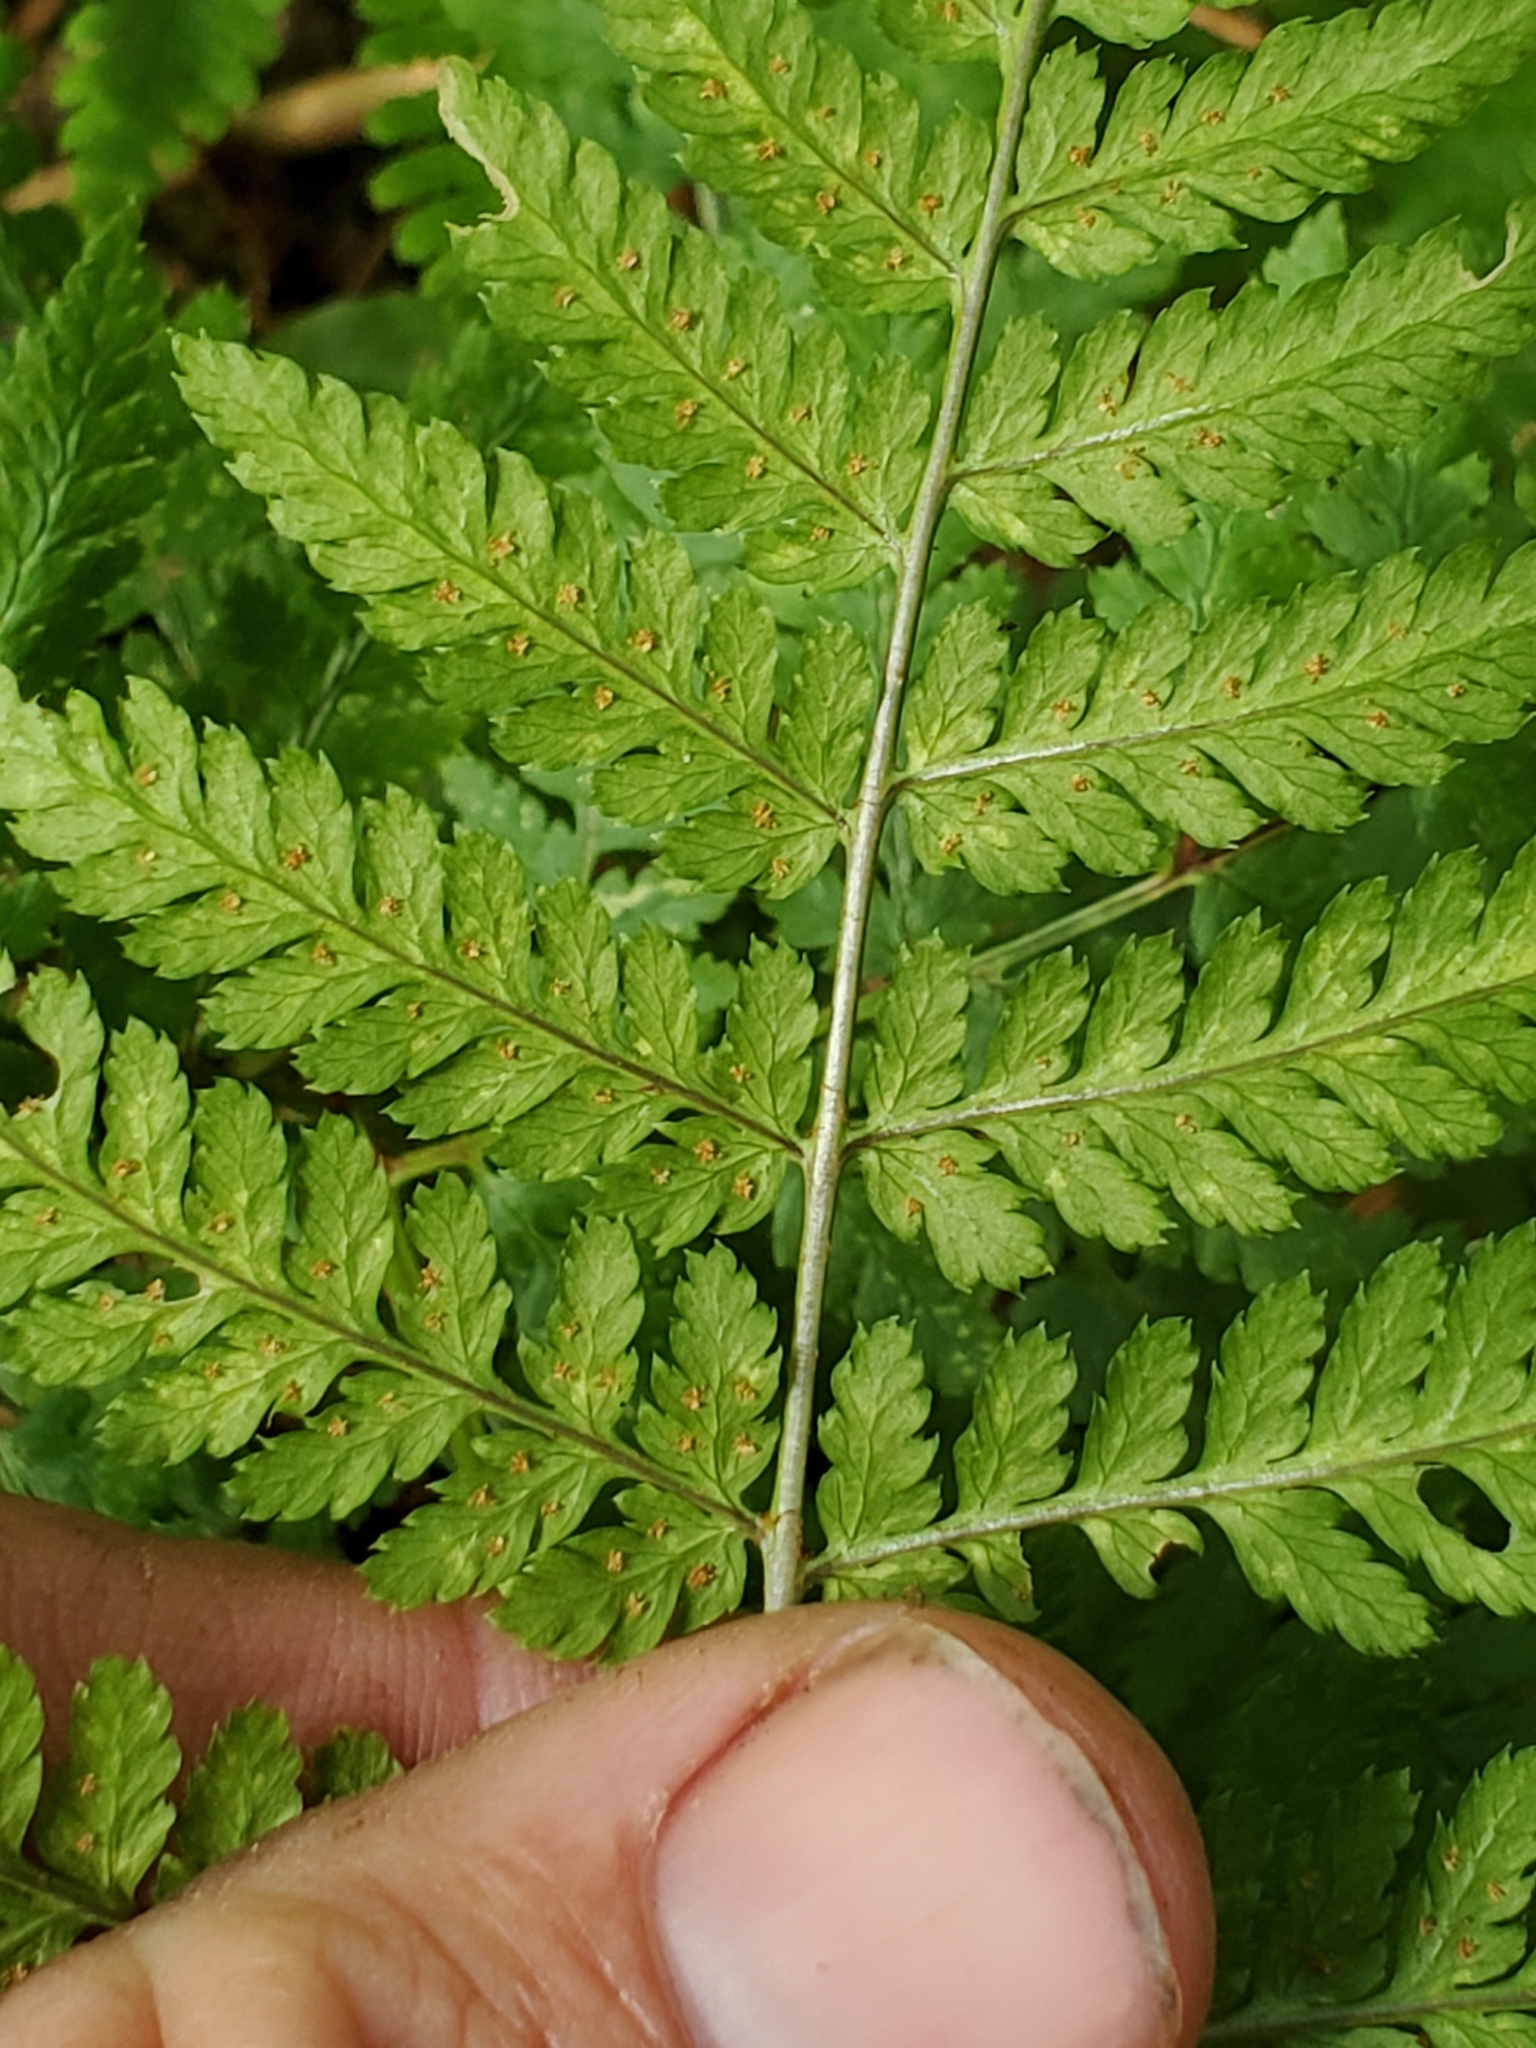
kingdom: Plantae
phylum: Tracheophyta
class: Polypodiopsida
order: Polypodiales
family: Dryopteridaceae
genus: Dryopteris
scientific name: Dryopteris expansa
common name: Northern buckler fern
